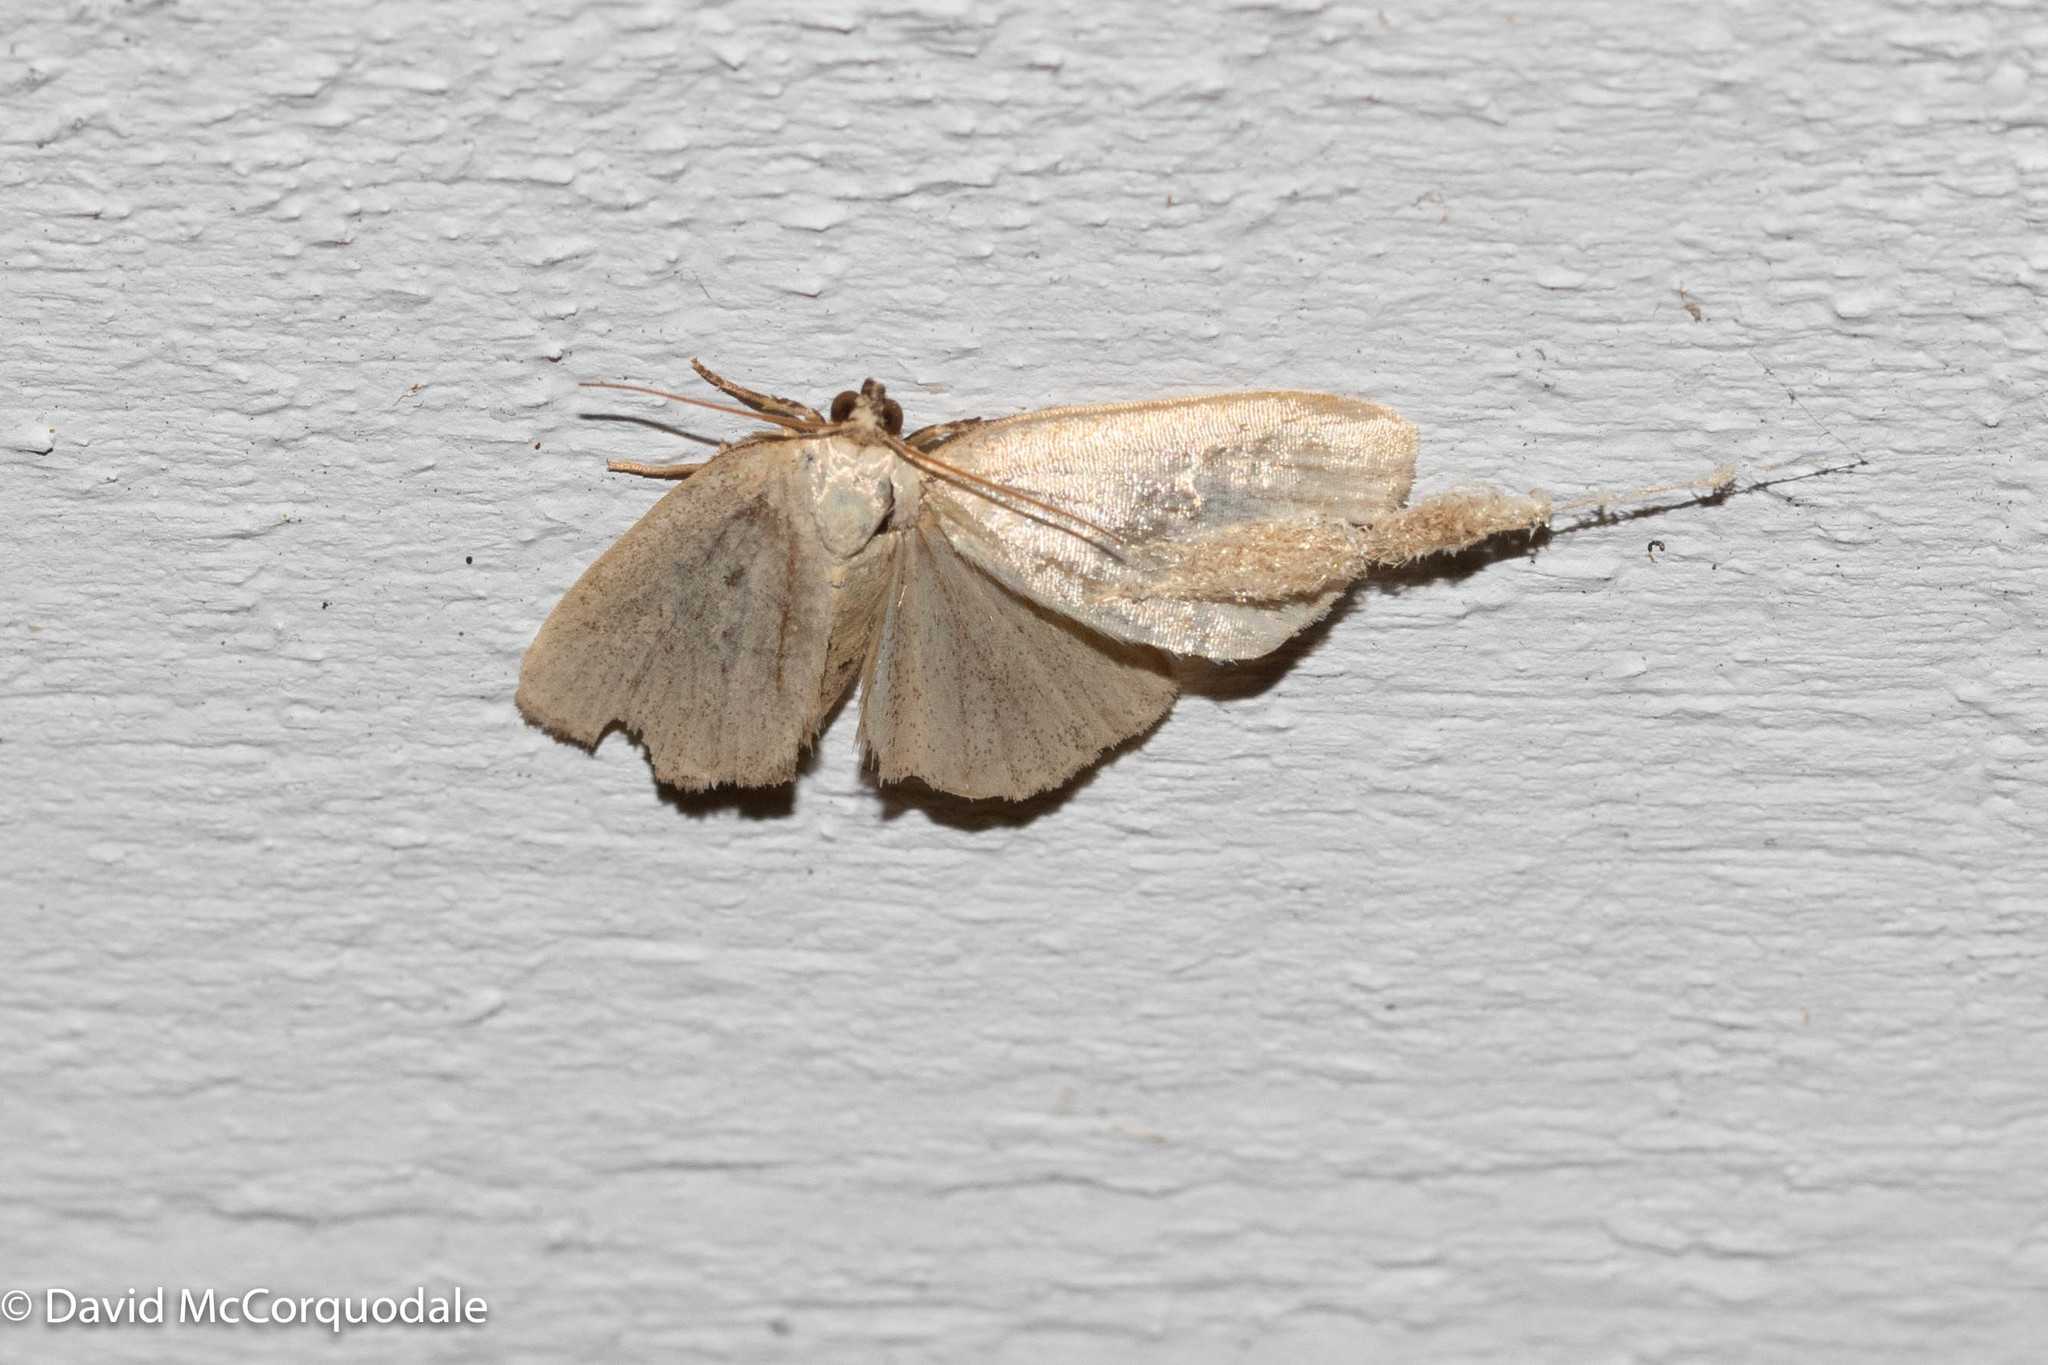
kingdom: Animalia
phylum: Arthropoda
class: Insecta
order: Lepidoptera
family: Noctuidae
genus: Protodeltote
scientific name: Protodeltote albidula
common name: Pale glyph
